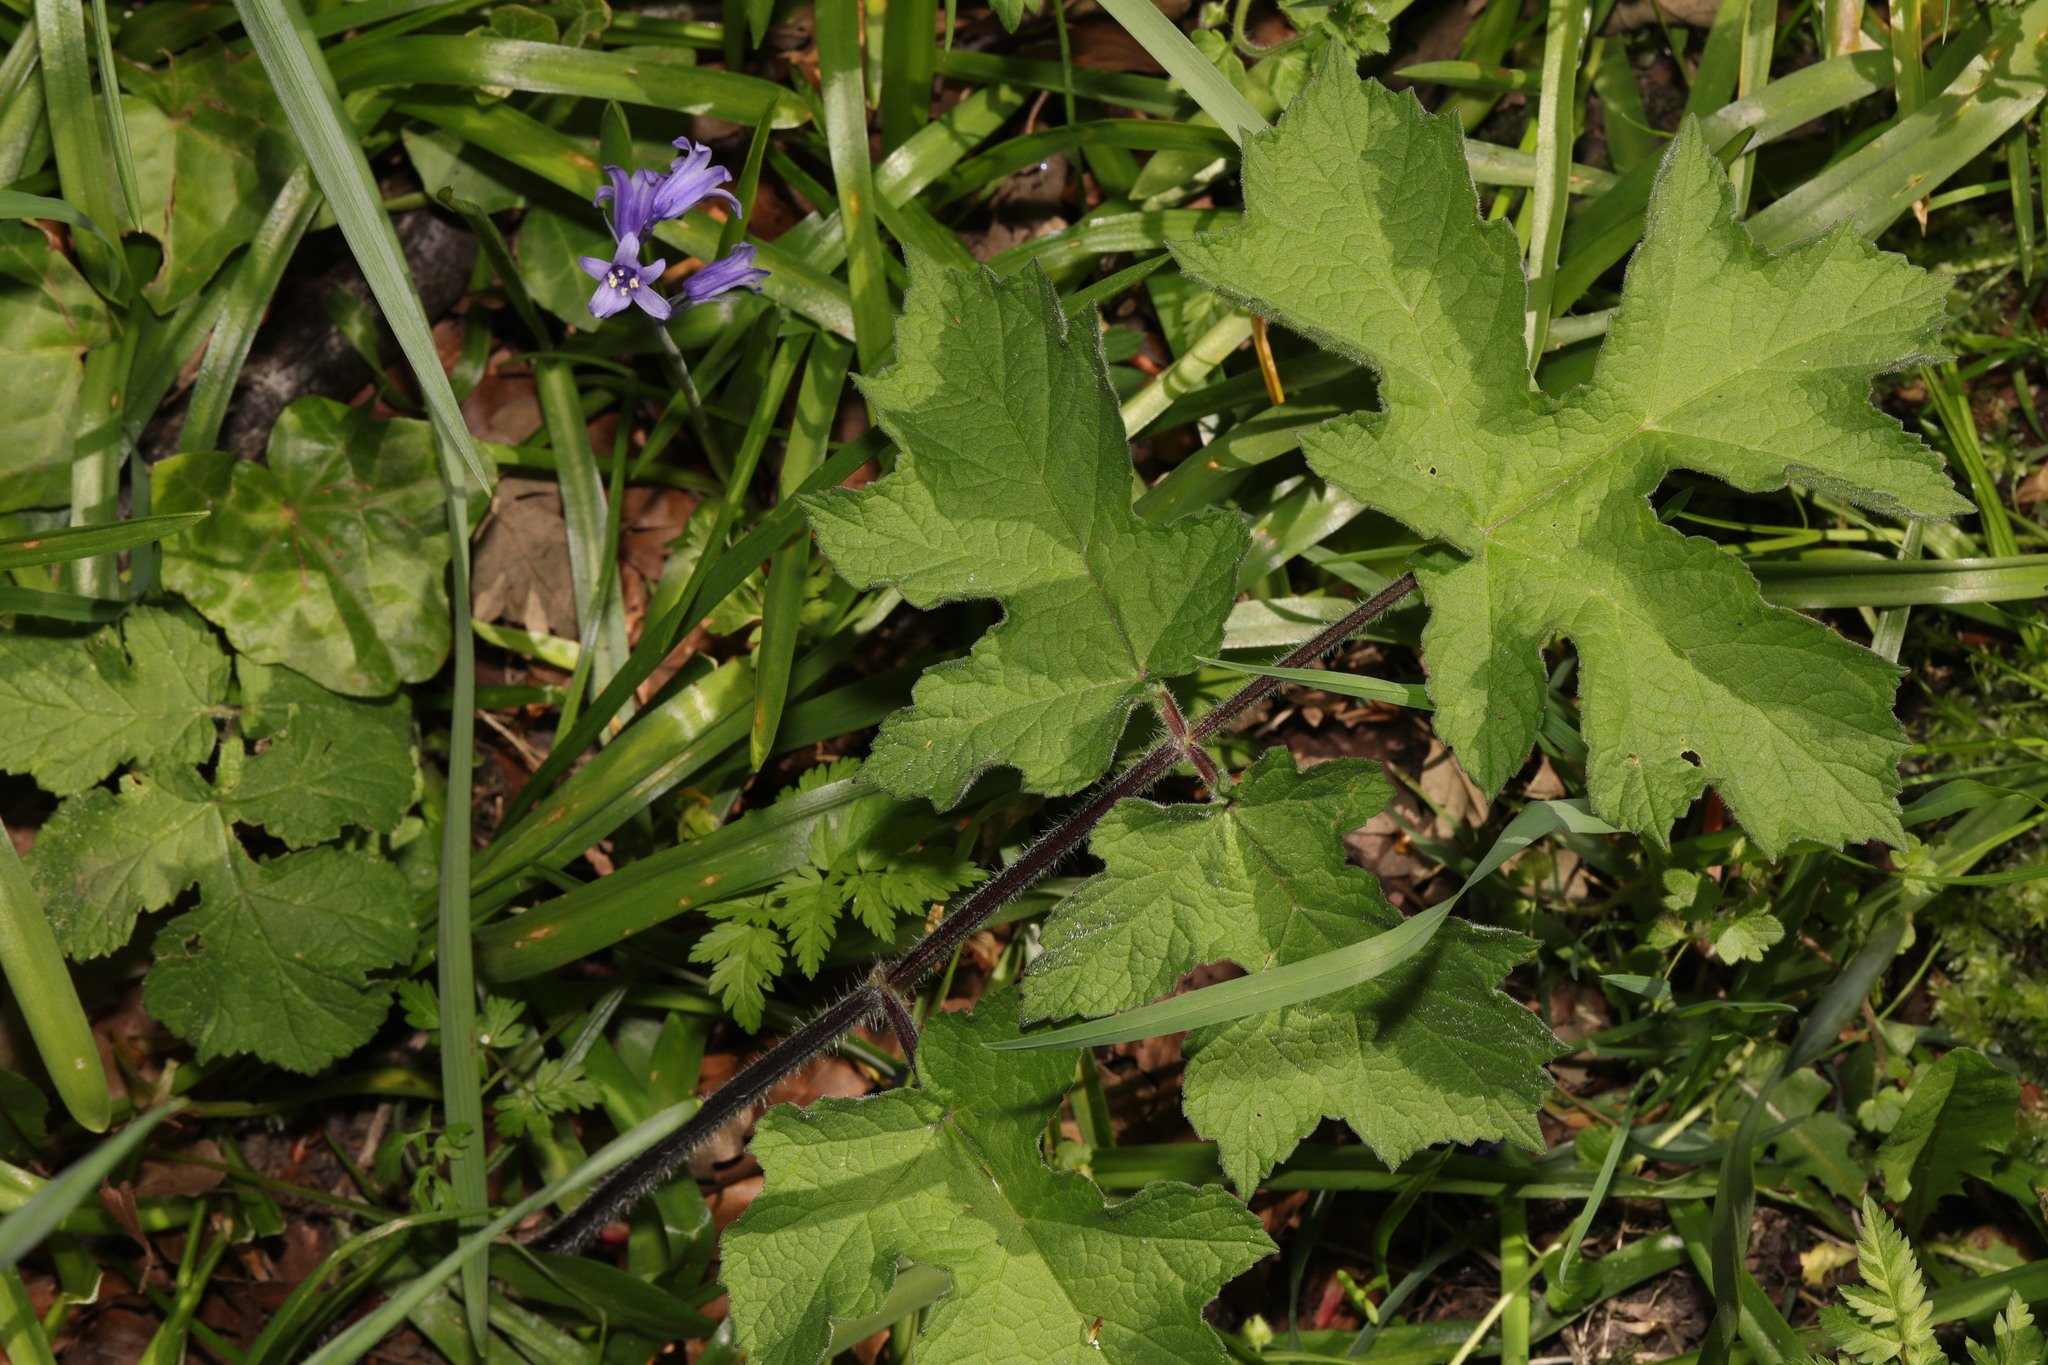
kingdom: Plantae
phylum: Tracheophyta
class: Magnoliopsida
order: Apiales
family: Apiaceae
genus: Heracleum
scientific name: Heracleum sphondylium
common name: Hogweed
